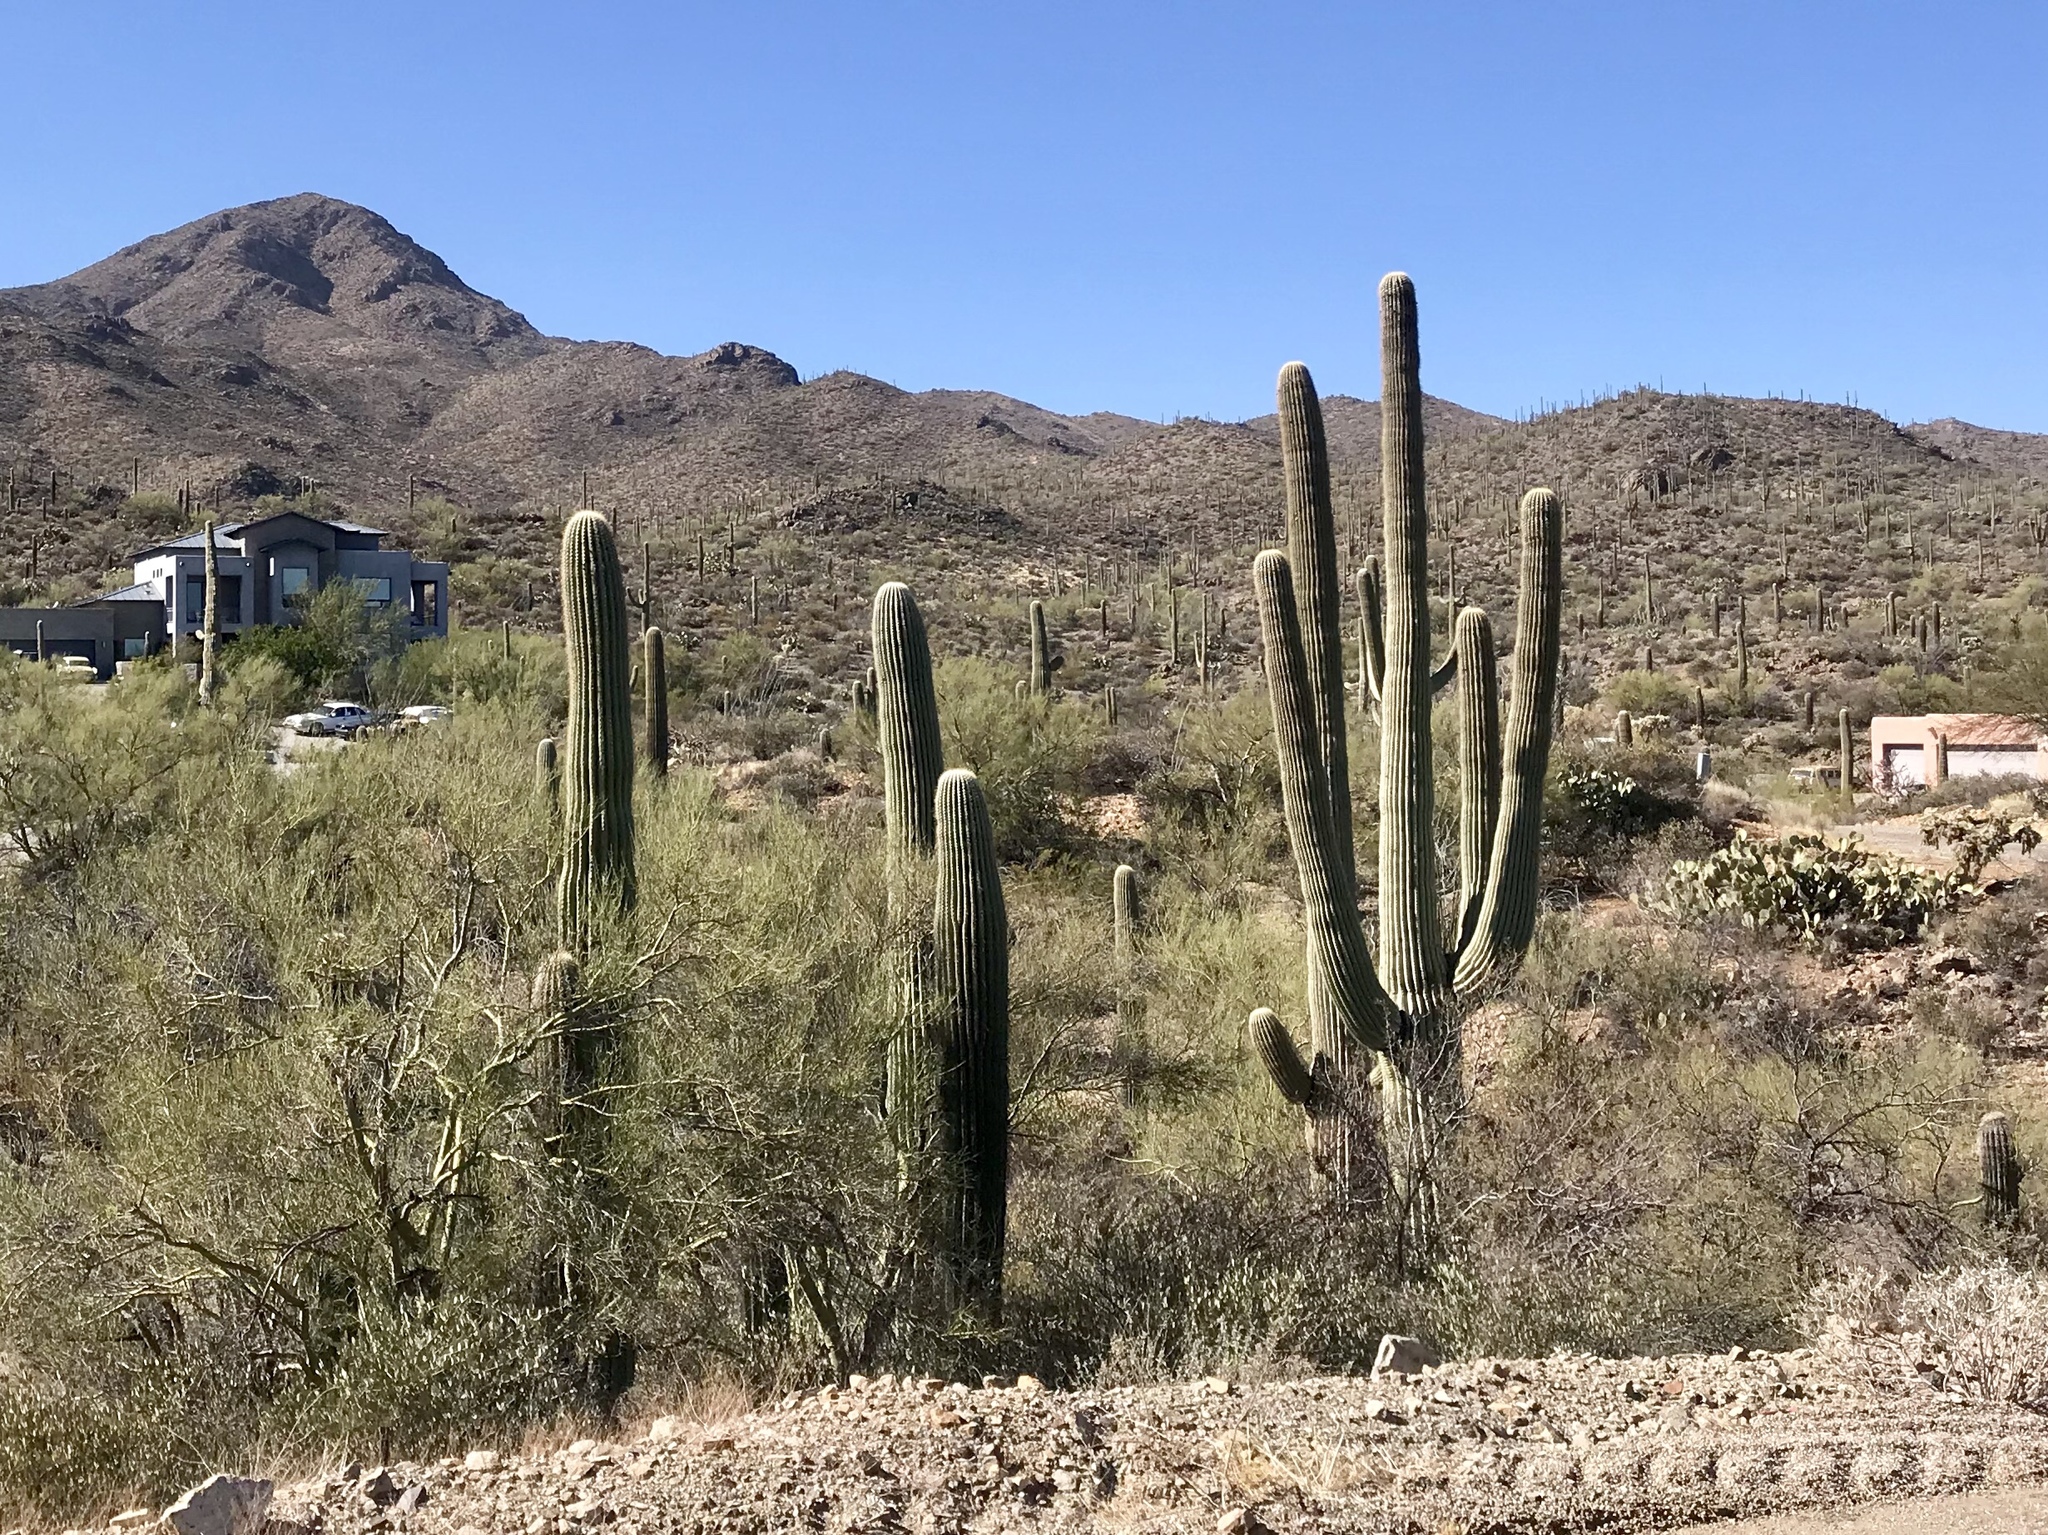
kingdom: Plantae
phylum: Tracheophyta
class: Magnoliopsida
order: Caryophyllales
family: Cactaceae
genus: Carnegiea
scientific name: Carnegiea gigantea
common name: Saguaro
